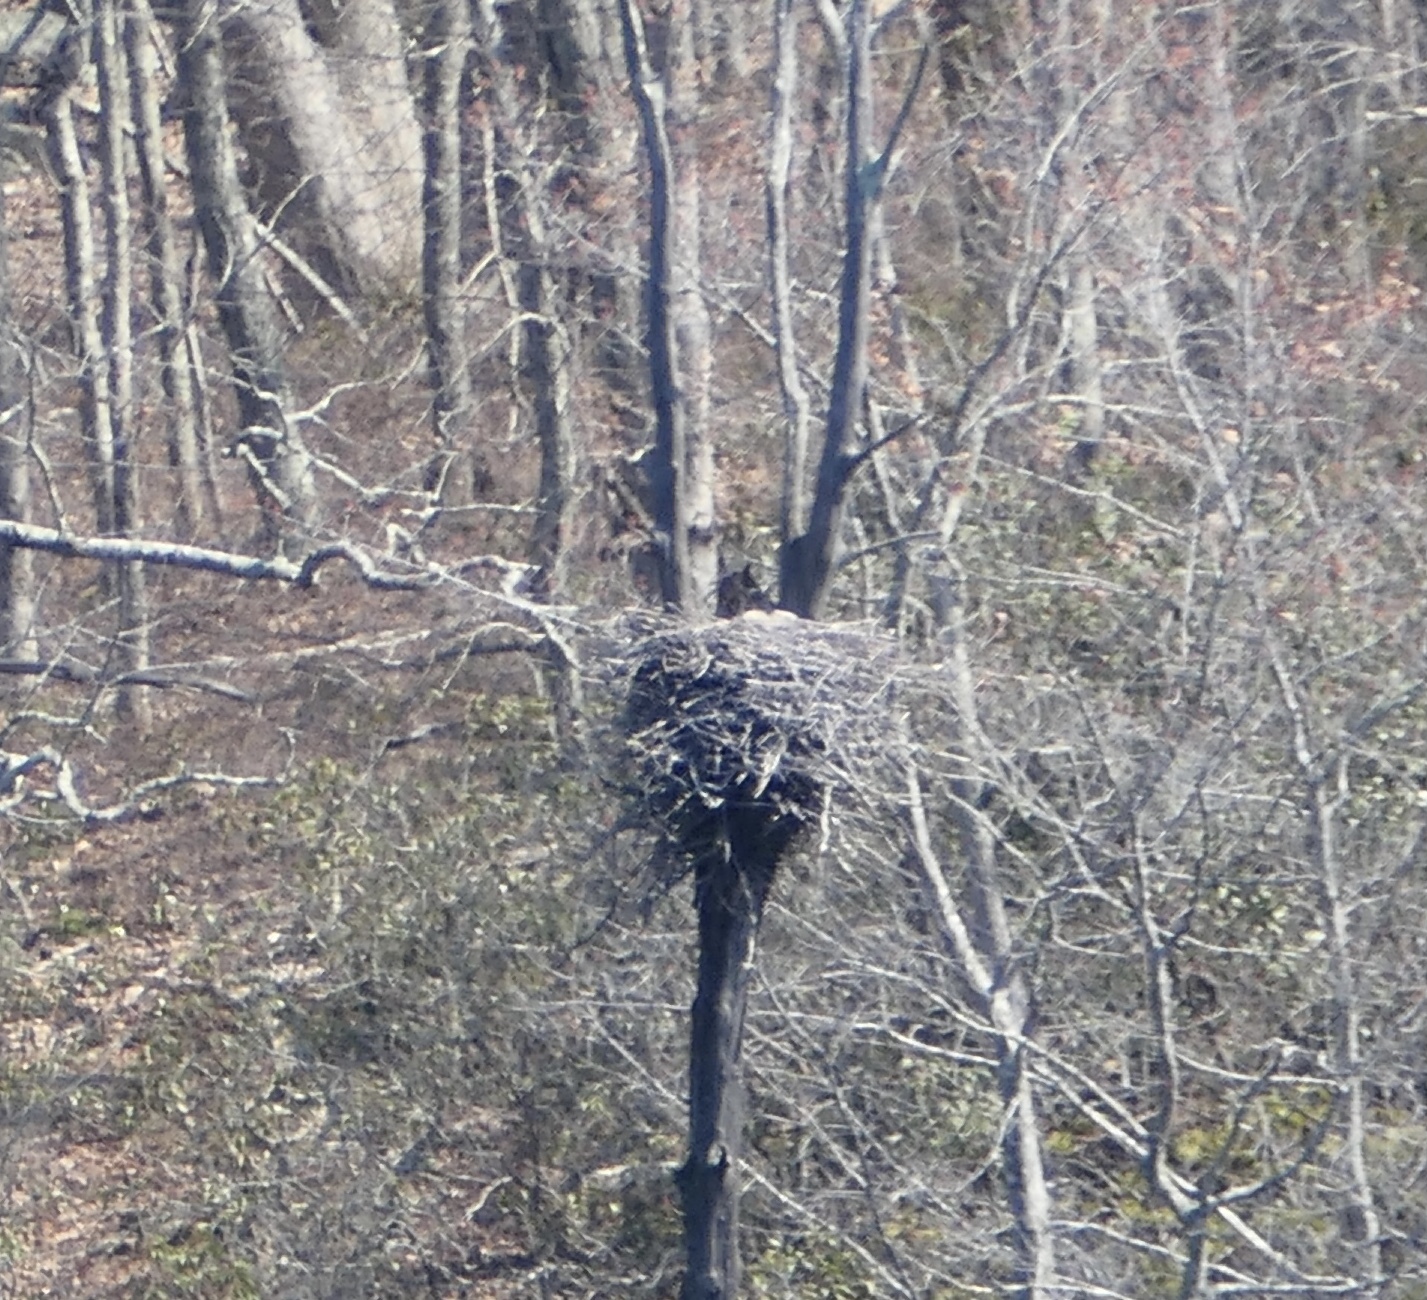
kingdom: Animalia
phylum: Chordata
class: Aves
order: Strigiformes
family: Strigidae
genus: Bubo
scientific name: Bubo virginianus
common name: Great horned owl
